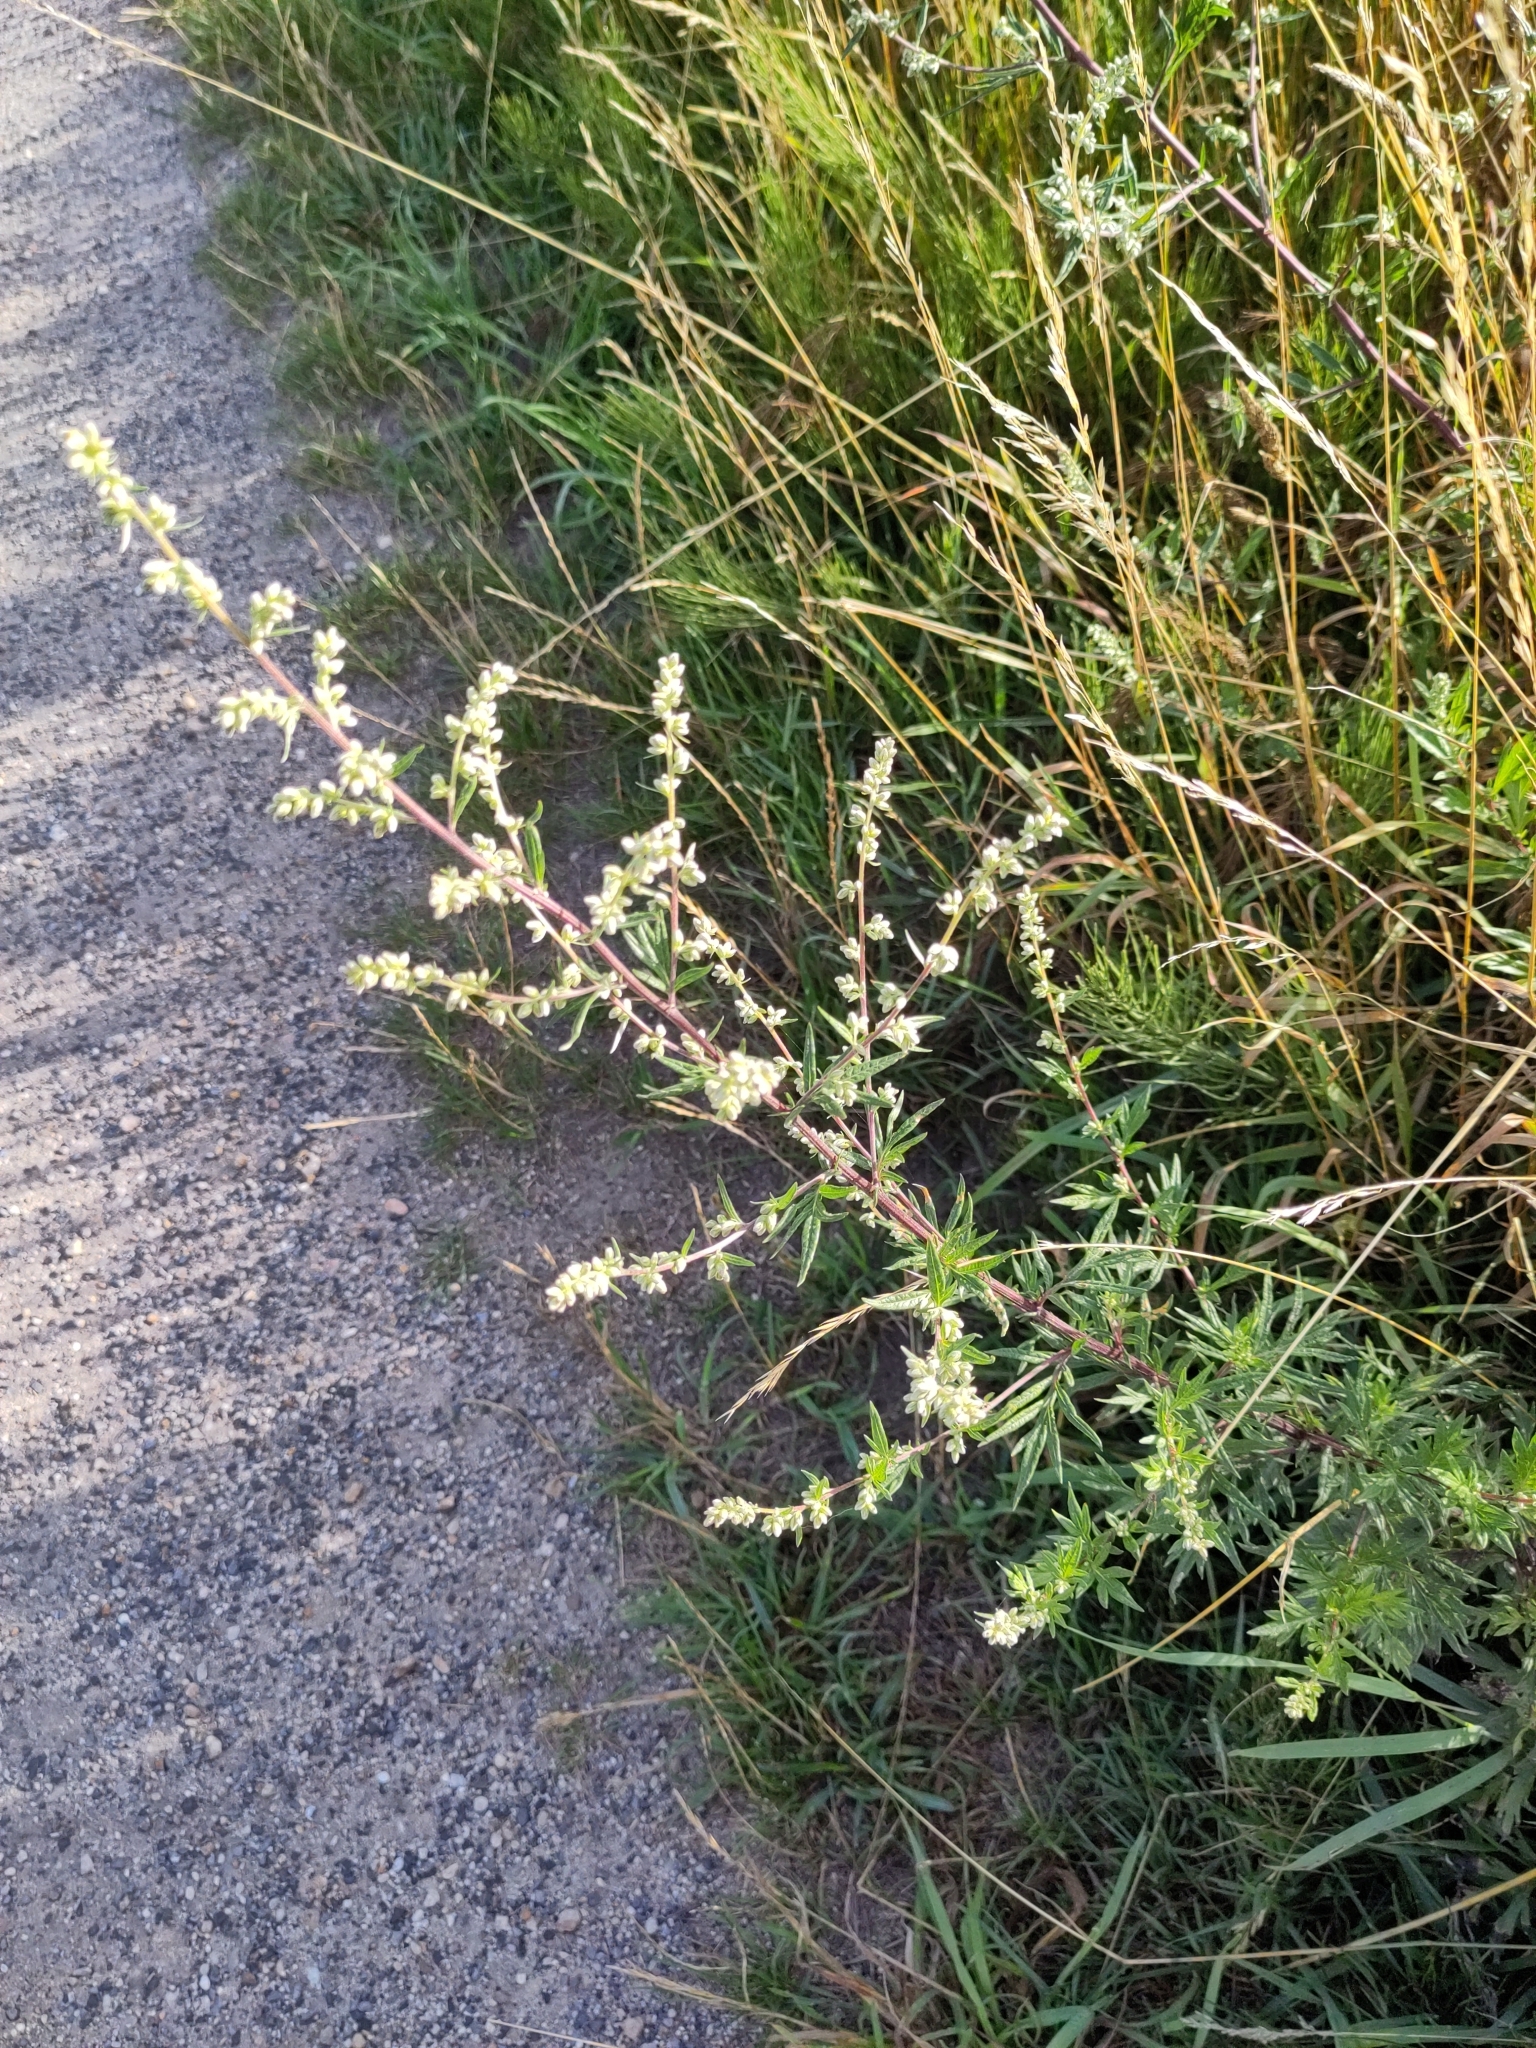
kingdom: Plantae
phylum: Tracheophyta
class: Magnoliopsida
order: Asterales
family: Asteraceae
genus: Artemisia
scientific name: Artemisia vulgaris
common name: Mugwort
